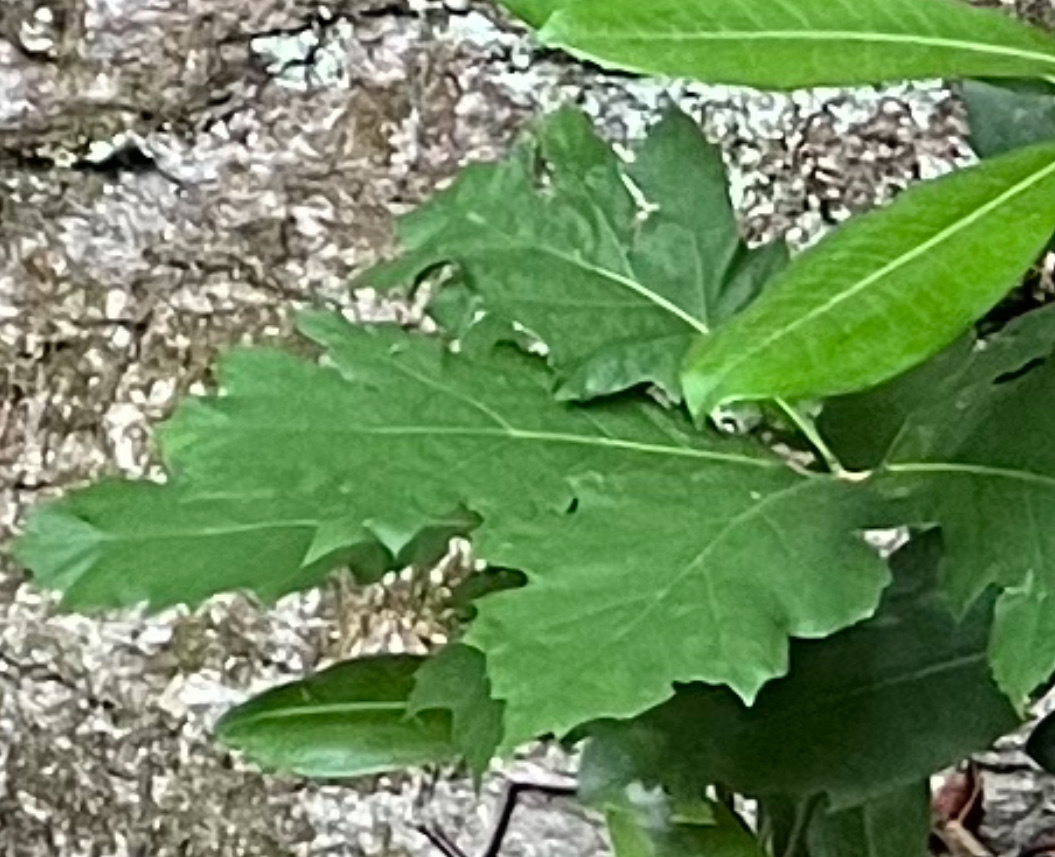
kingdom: Plantae
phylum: Tracheophyta
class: Magnoliopsida
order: Fagales
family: Fagaceae
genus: Quercus
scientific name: Quercus rubra
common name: Red oak
